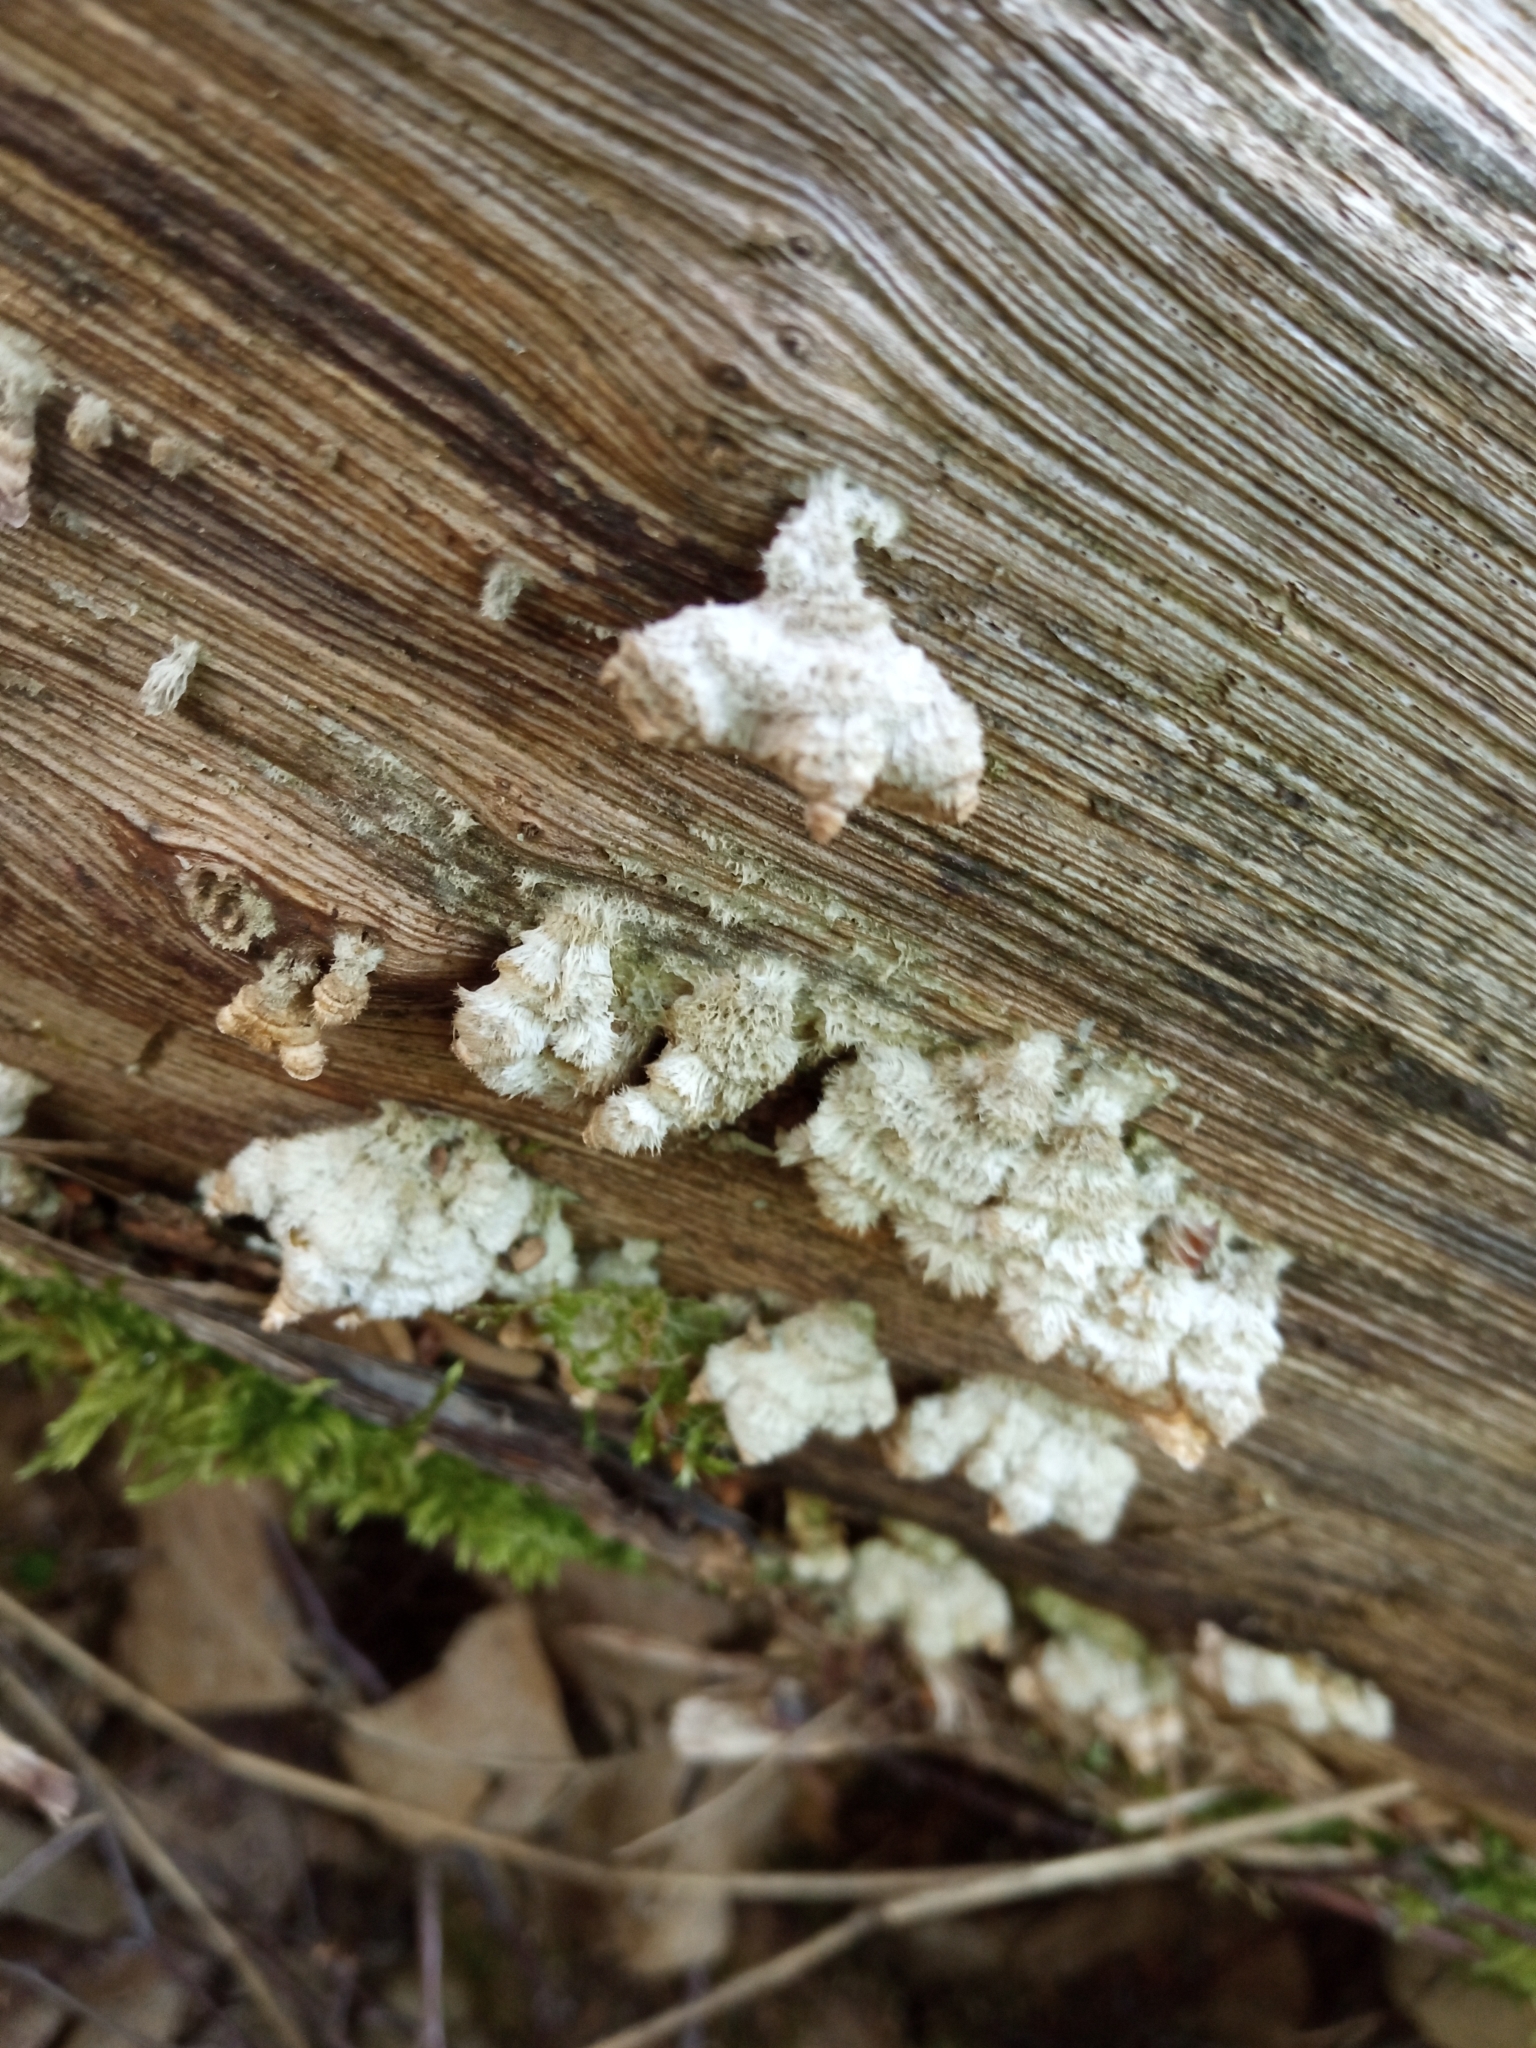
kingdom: Fungi
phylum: Basidiomycota
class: Agaricomycetes
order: Agaricales
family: Schizophyllaceae
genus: Schizophyllum
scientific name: Schizophyllum commune
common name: Common porecrust
